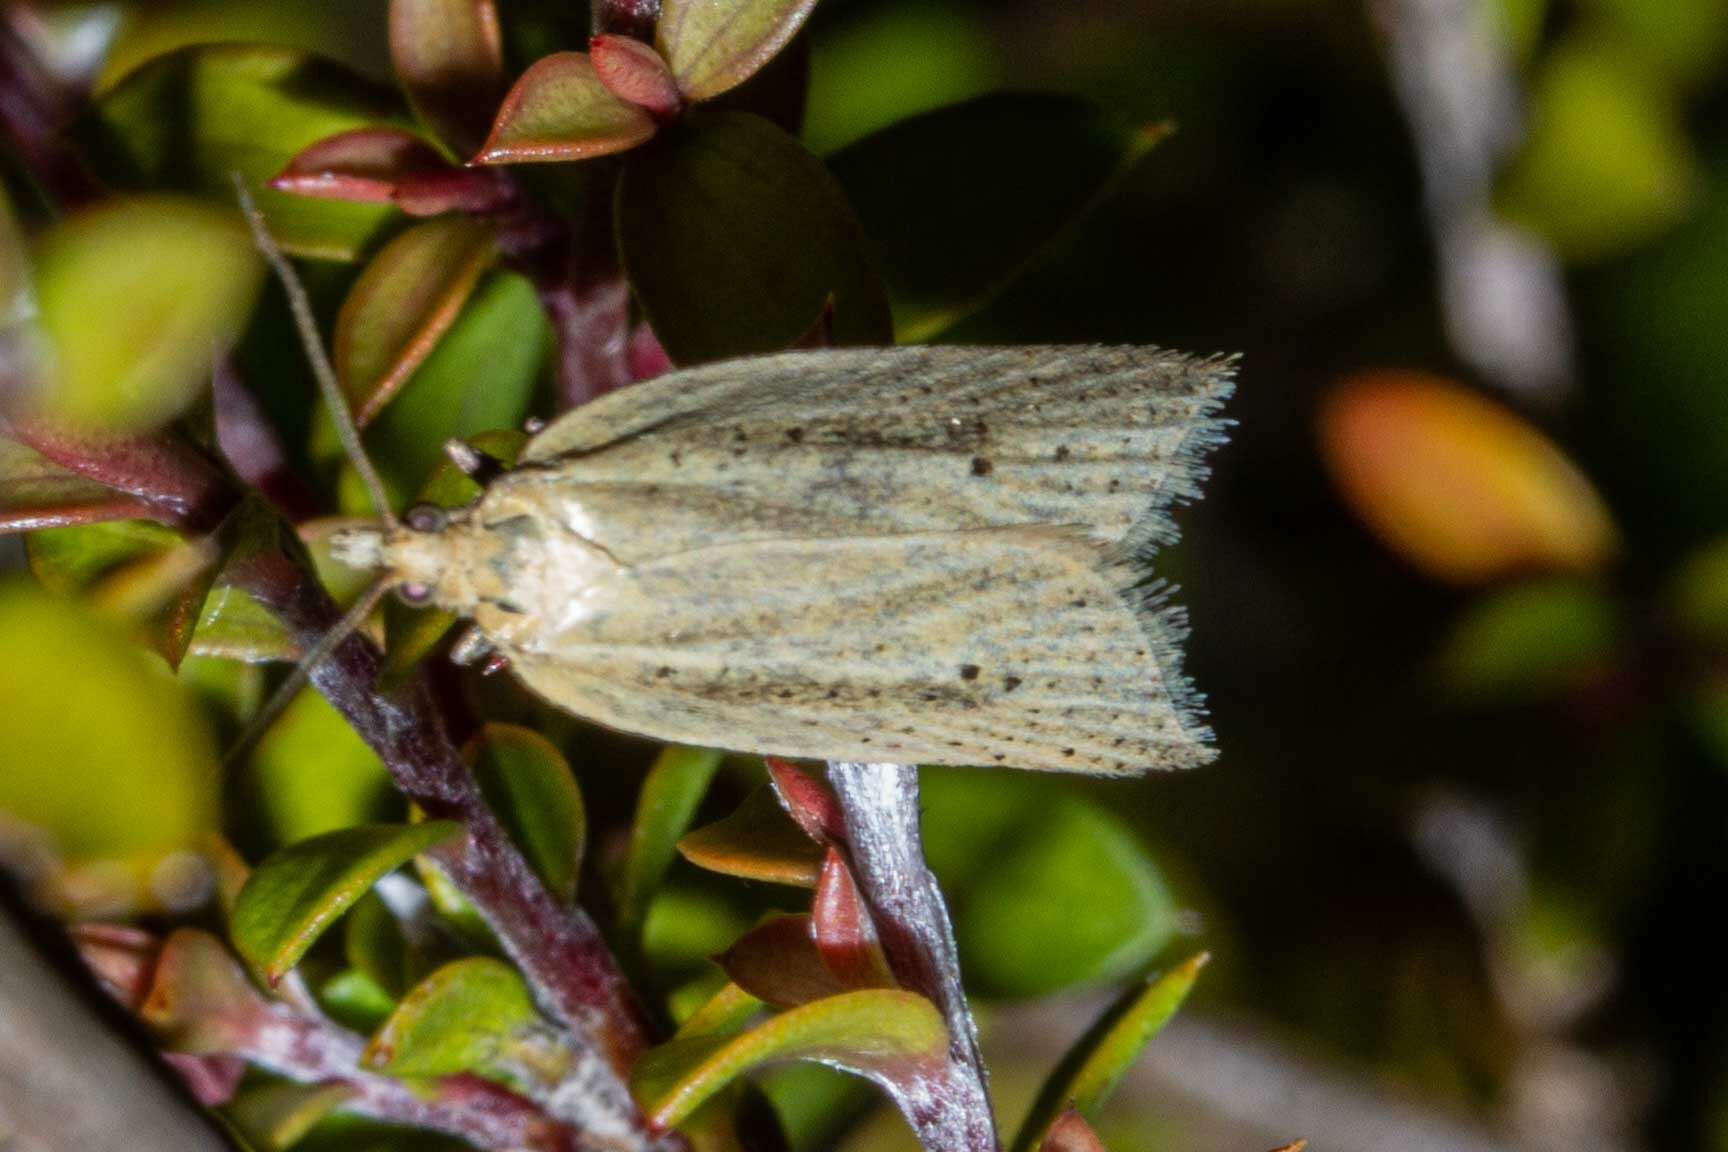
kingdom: Animalia
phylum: Arthropoda
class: Insecta
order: Lepidoptera
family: Tortricidae
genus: Clepsis
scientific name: Clepsis
